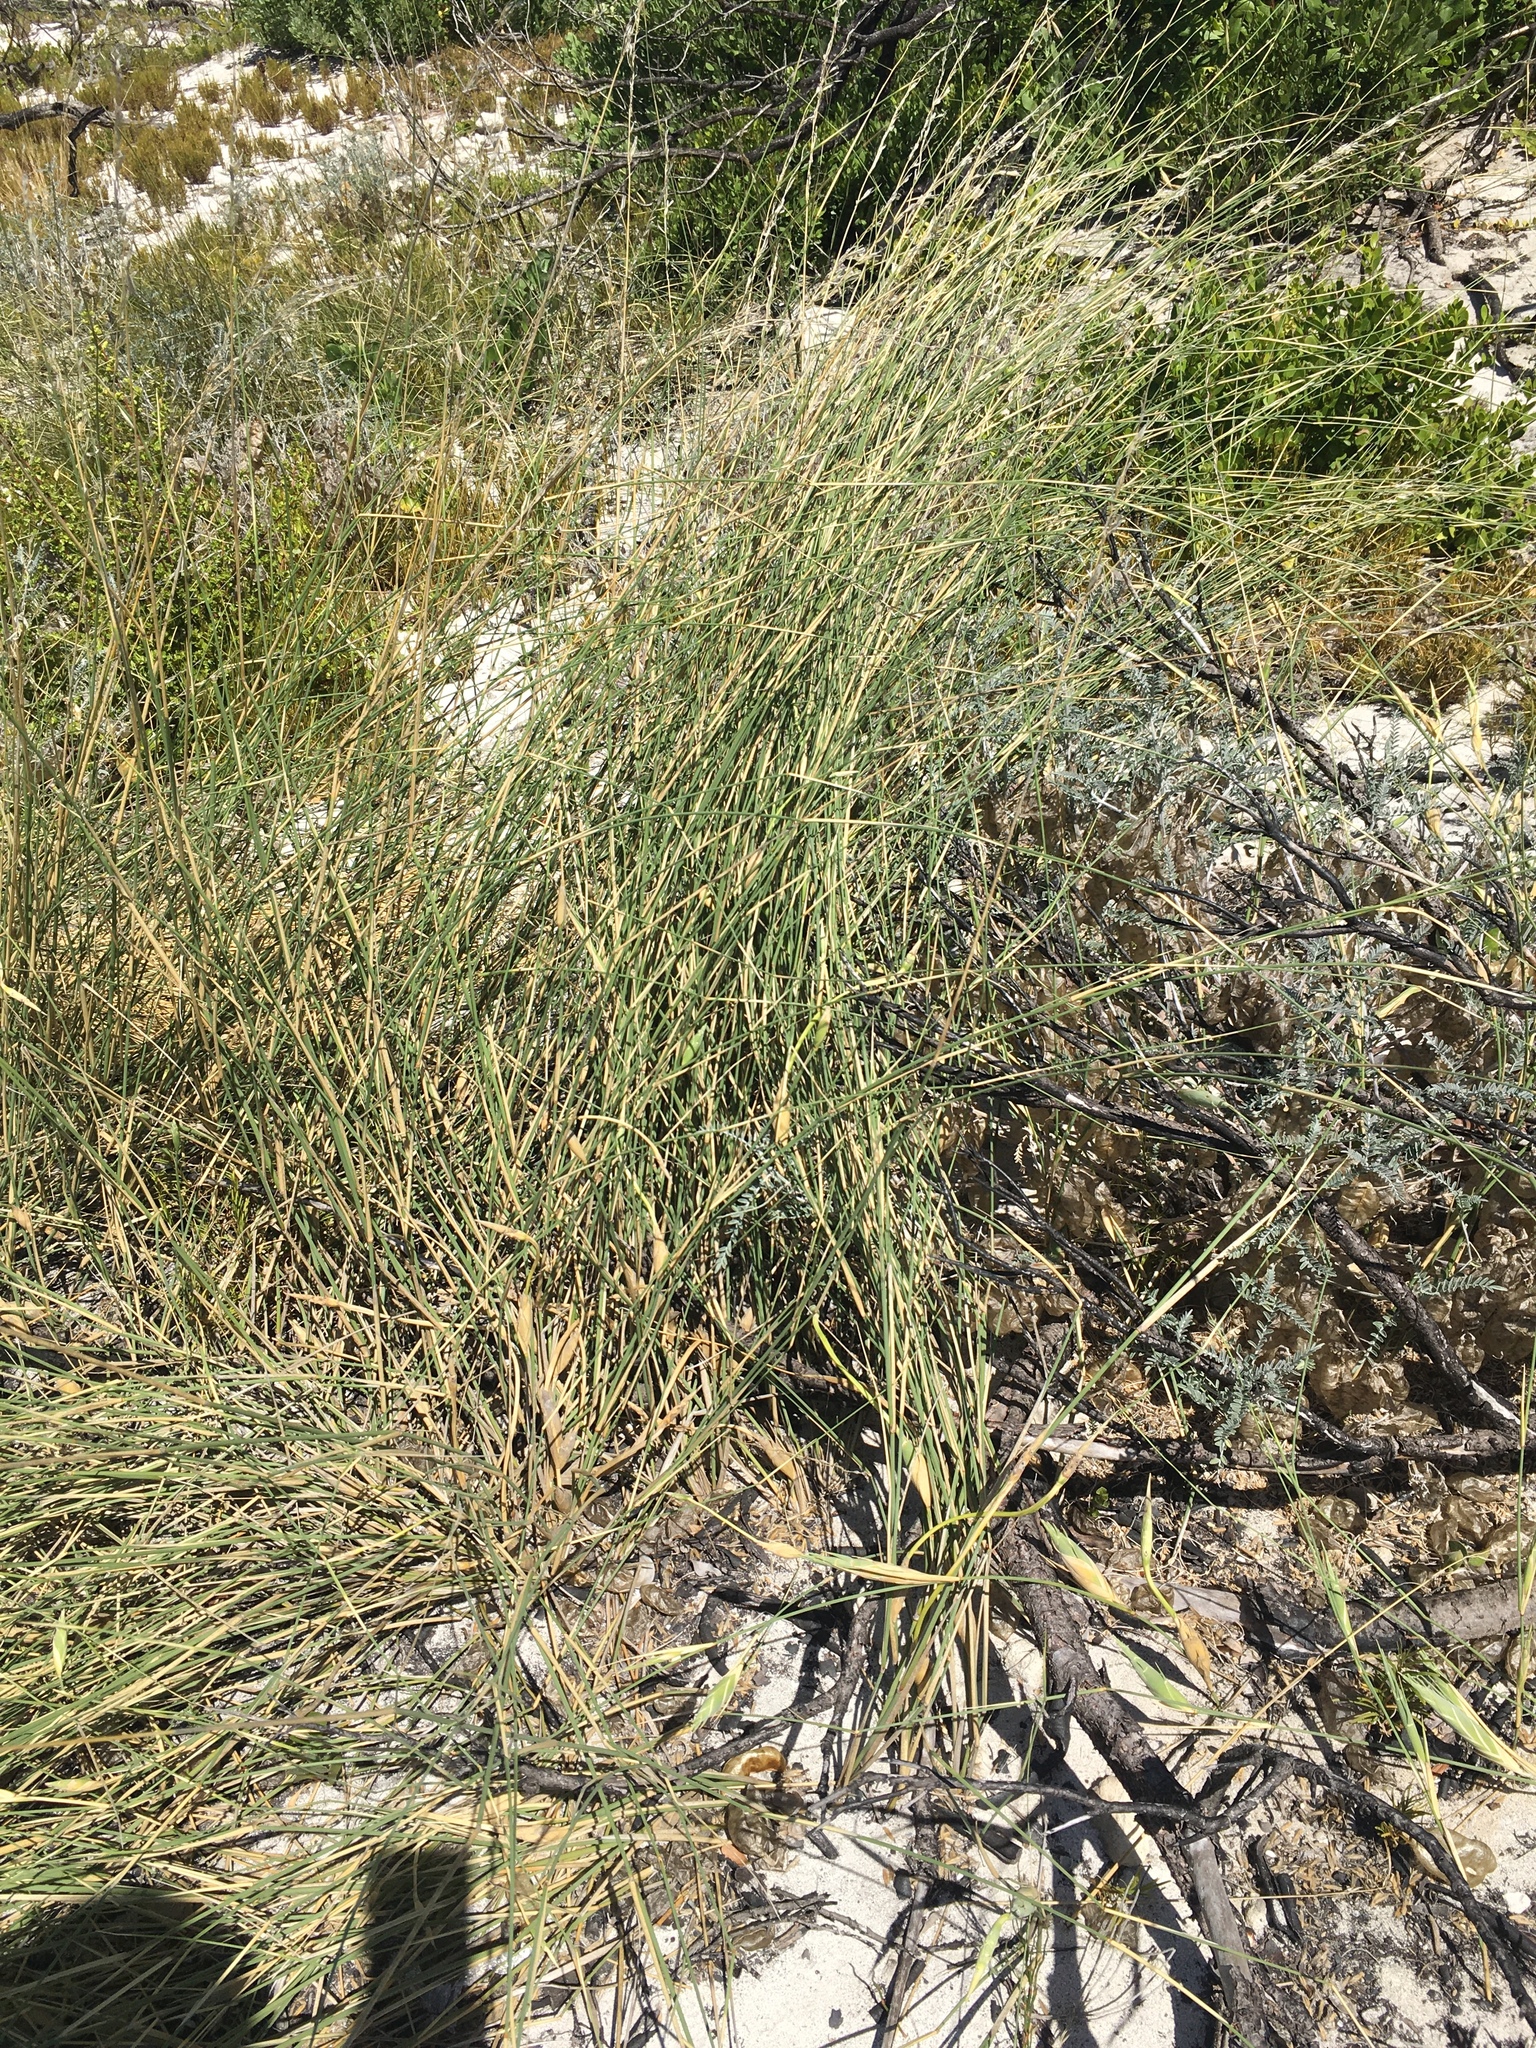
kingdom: Plantae
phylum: Tracheophyta
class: Liliopsida
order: Poales
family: Poaceae
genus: Ehrharta
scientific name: Ehrharta villosa
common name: Pyp grass
